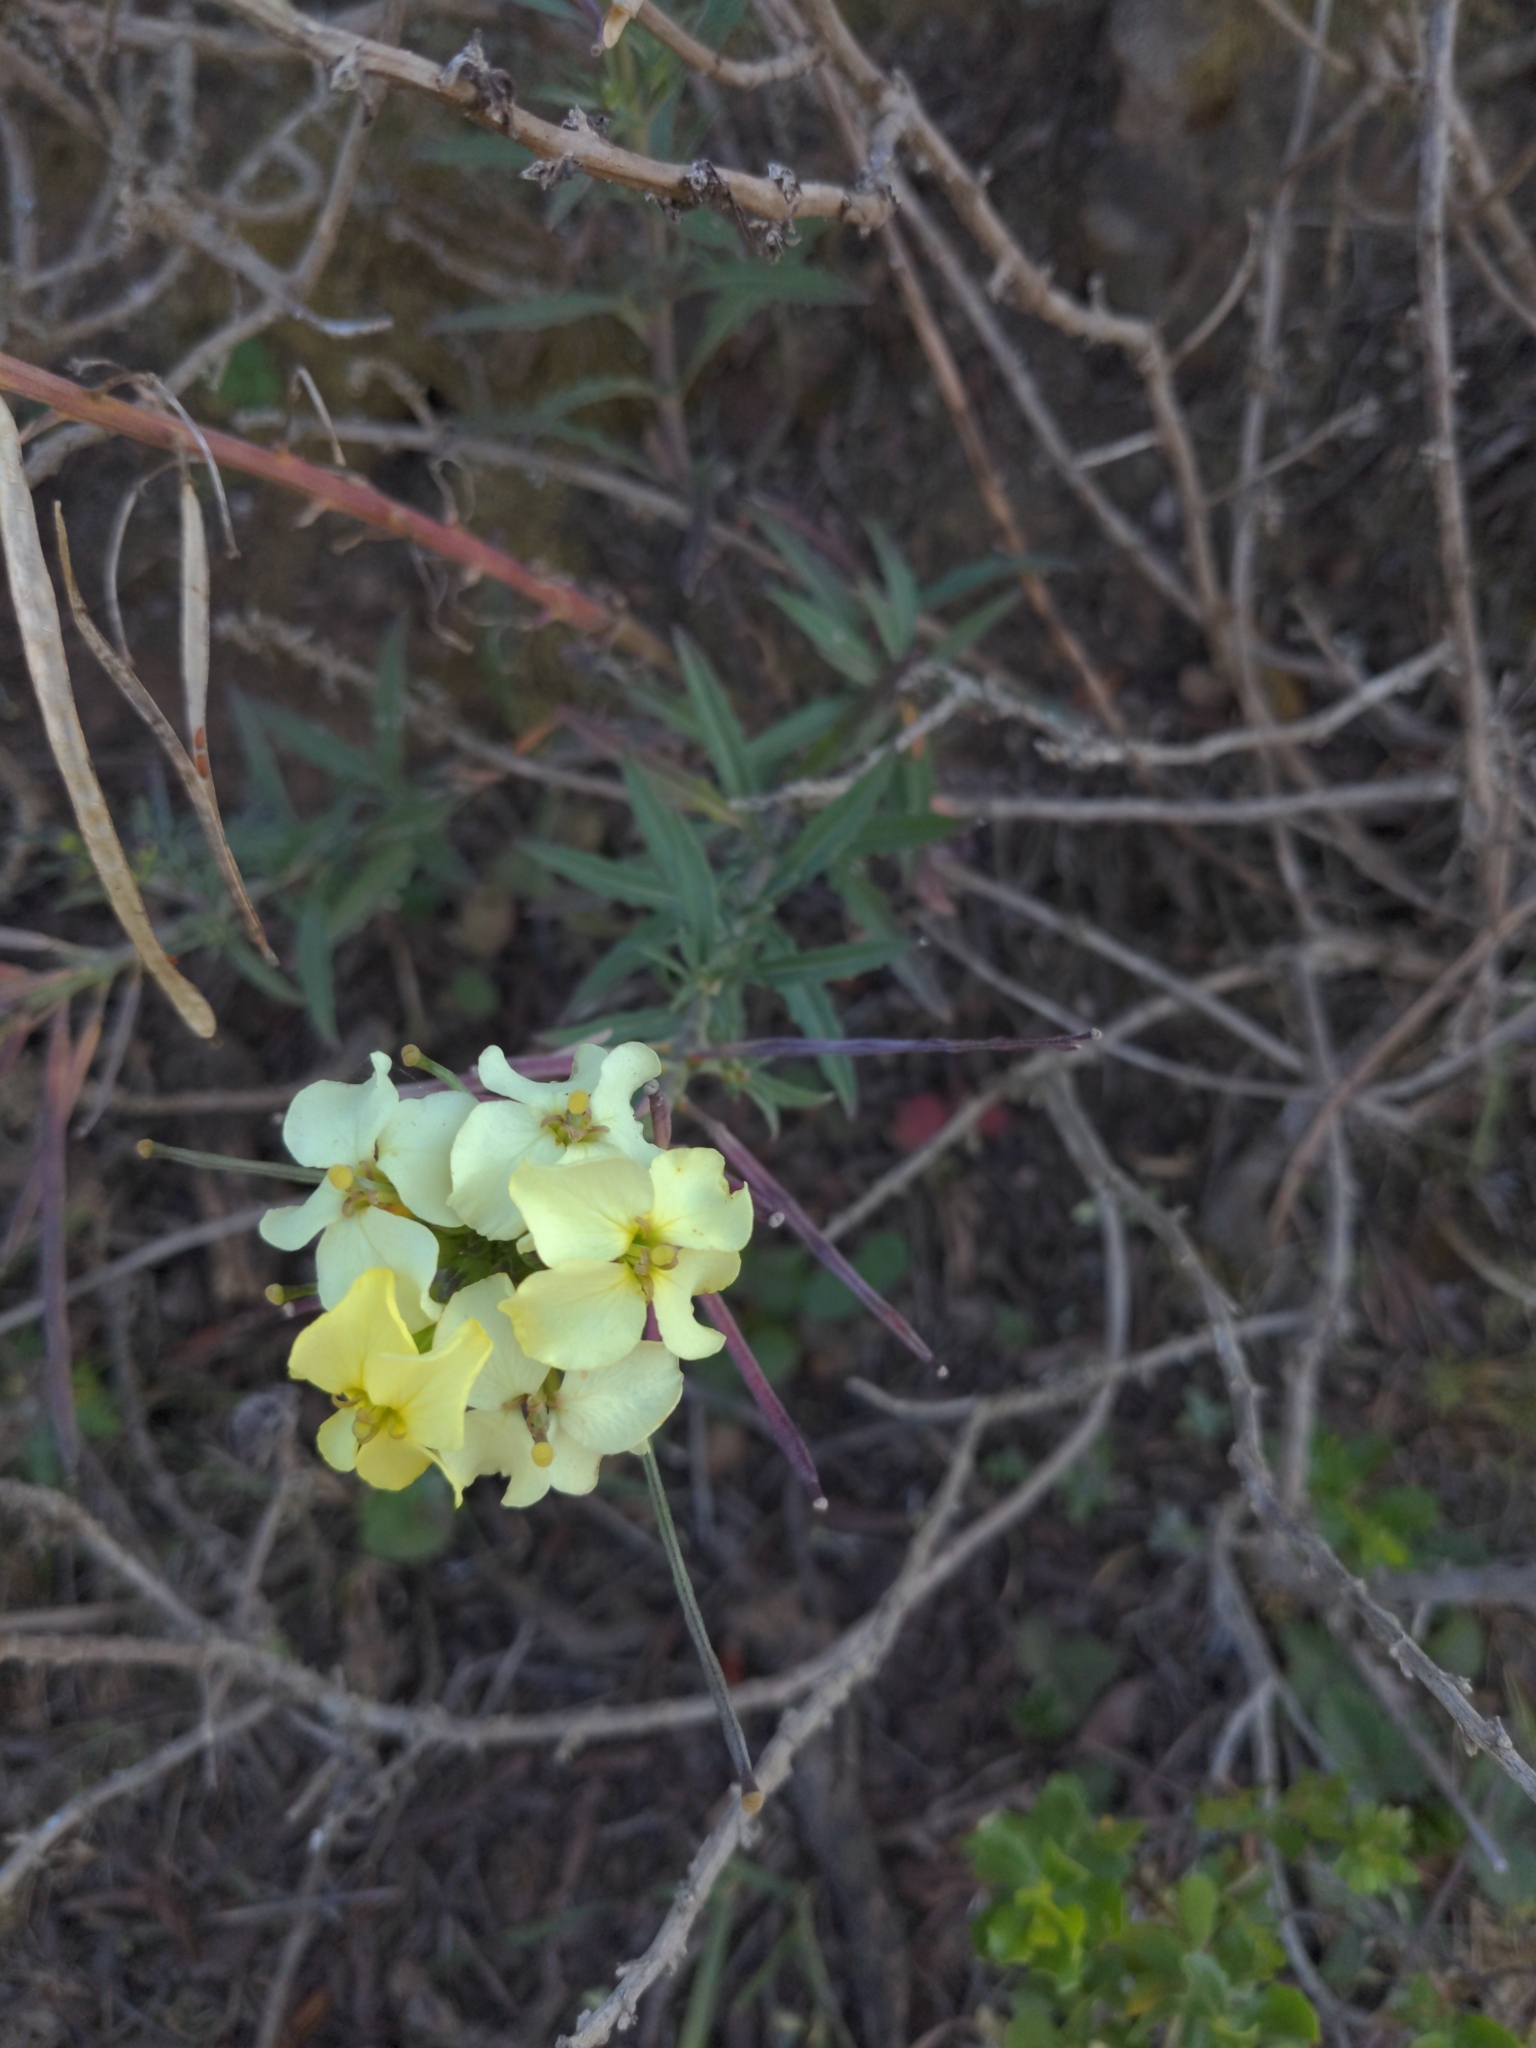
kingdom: Plantae
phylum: Tracheophyta
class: Magnoliopsida
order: Brassicales
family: Brassicaceae
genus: Erysimum
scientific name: Erysimum franciscanum
